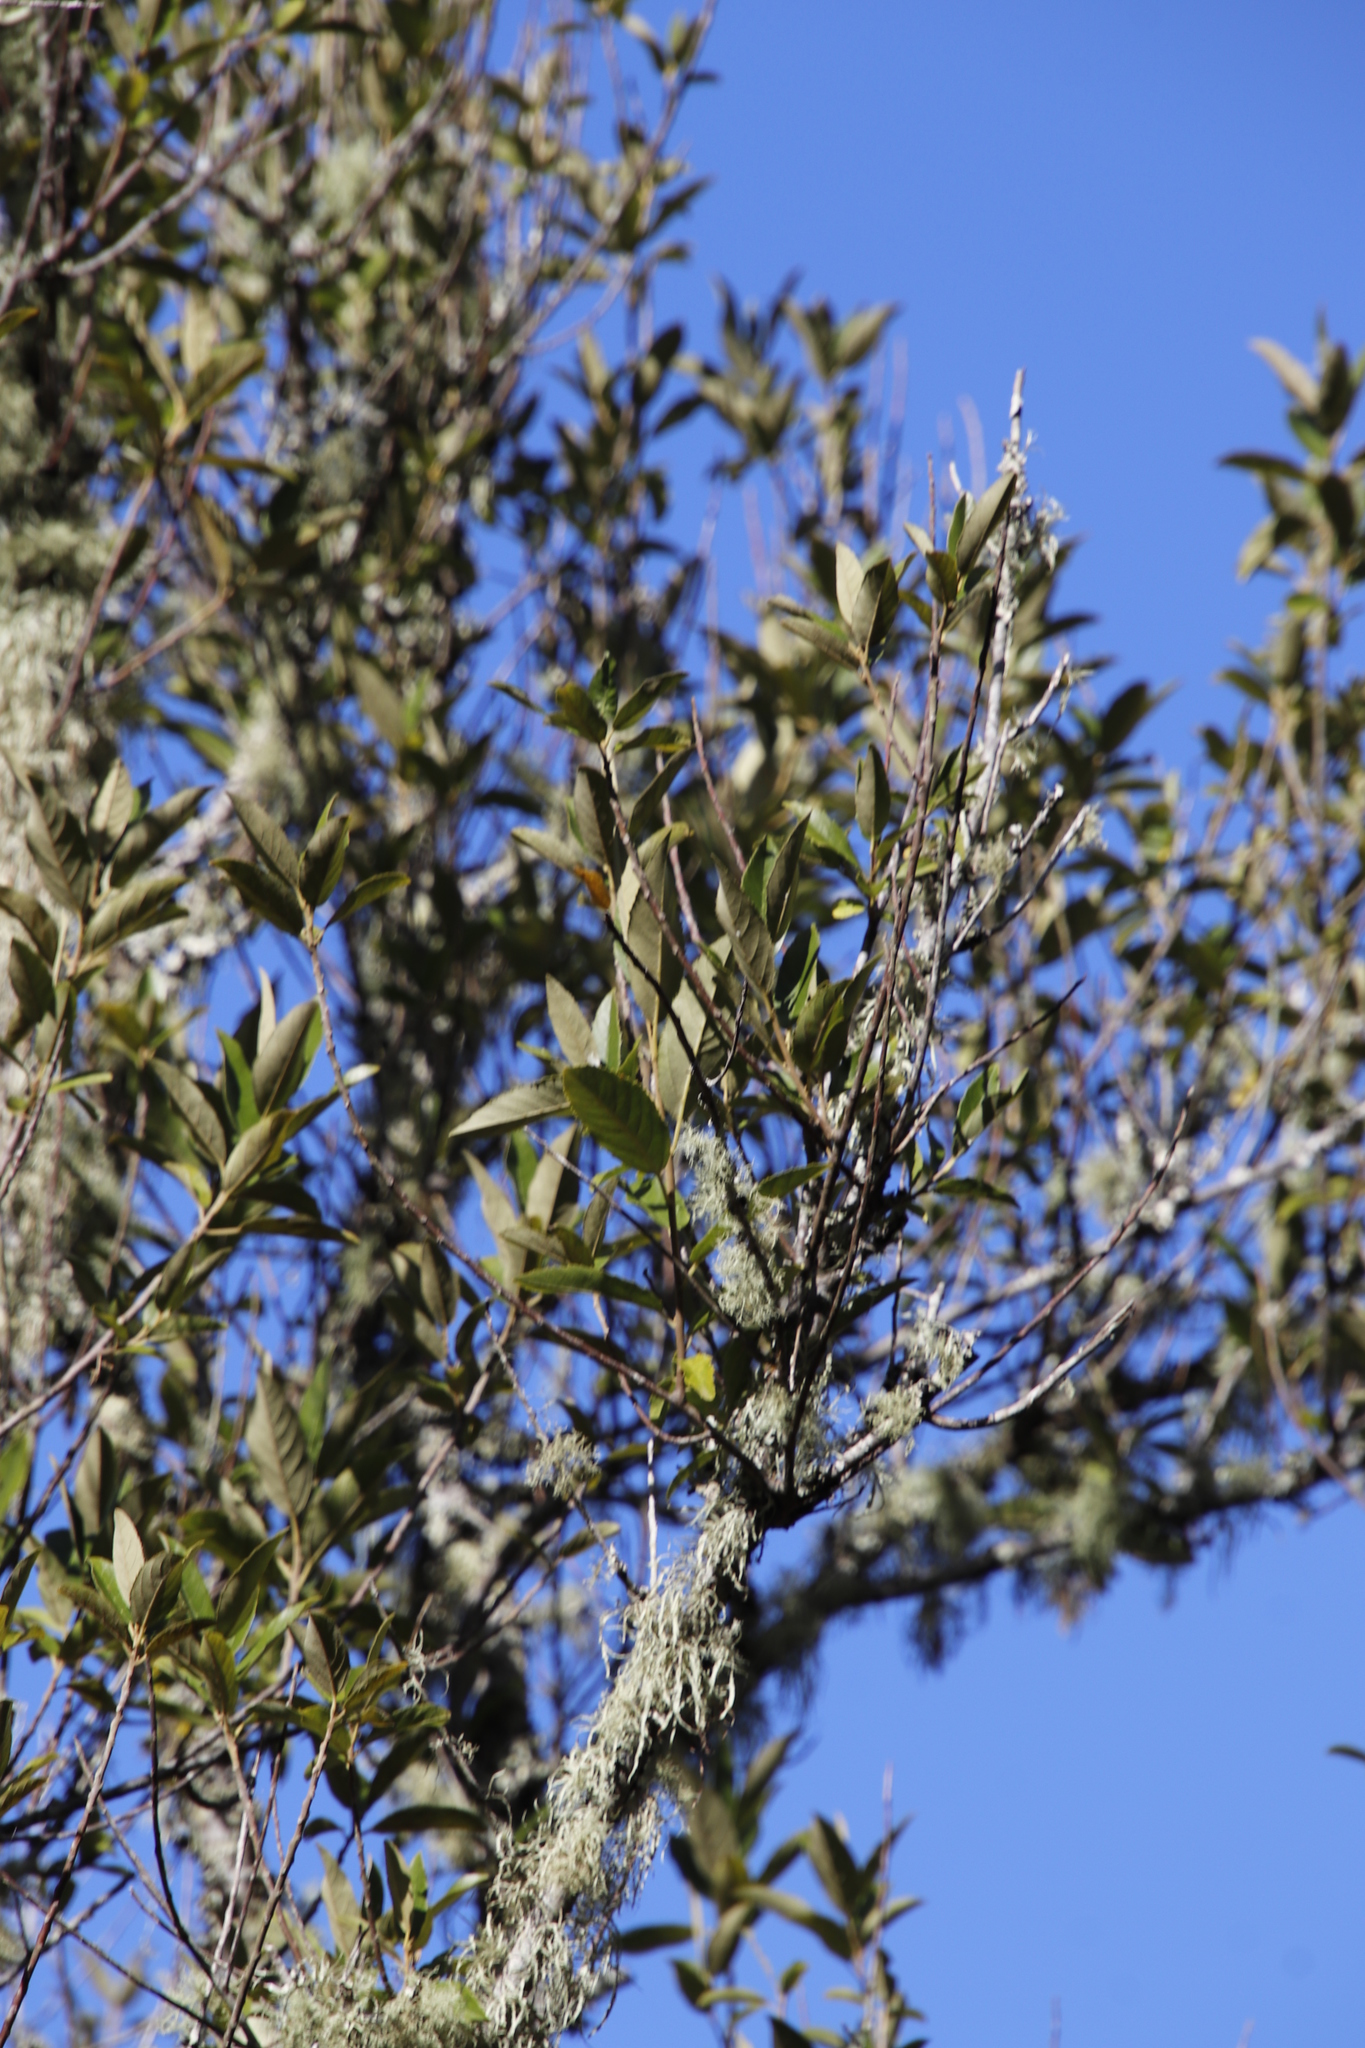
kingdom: Plantae
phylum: Tracheophyta
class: Magnoliopsida
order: Malpighiales
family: Achariaceae
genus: Kiggelaria
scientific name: Kiggelaria africana
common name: Wild peach
